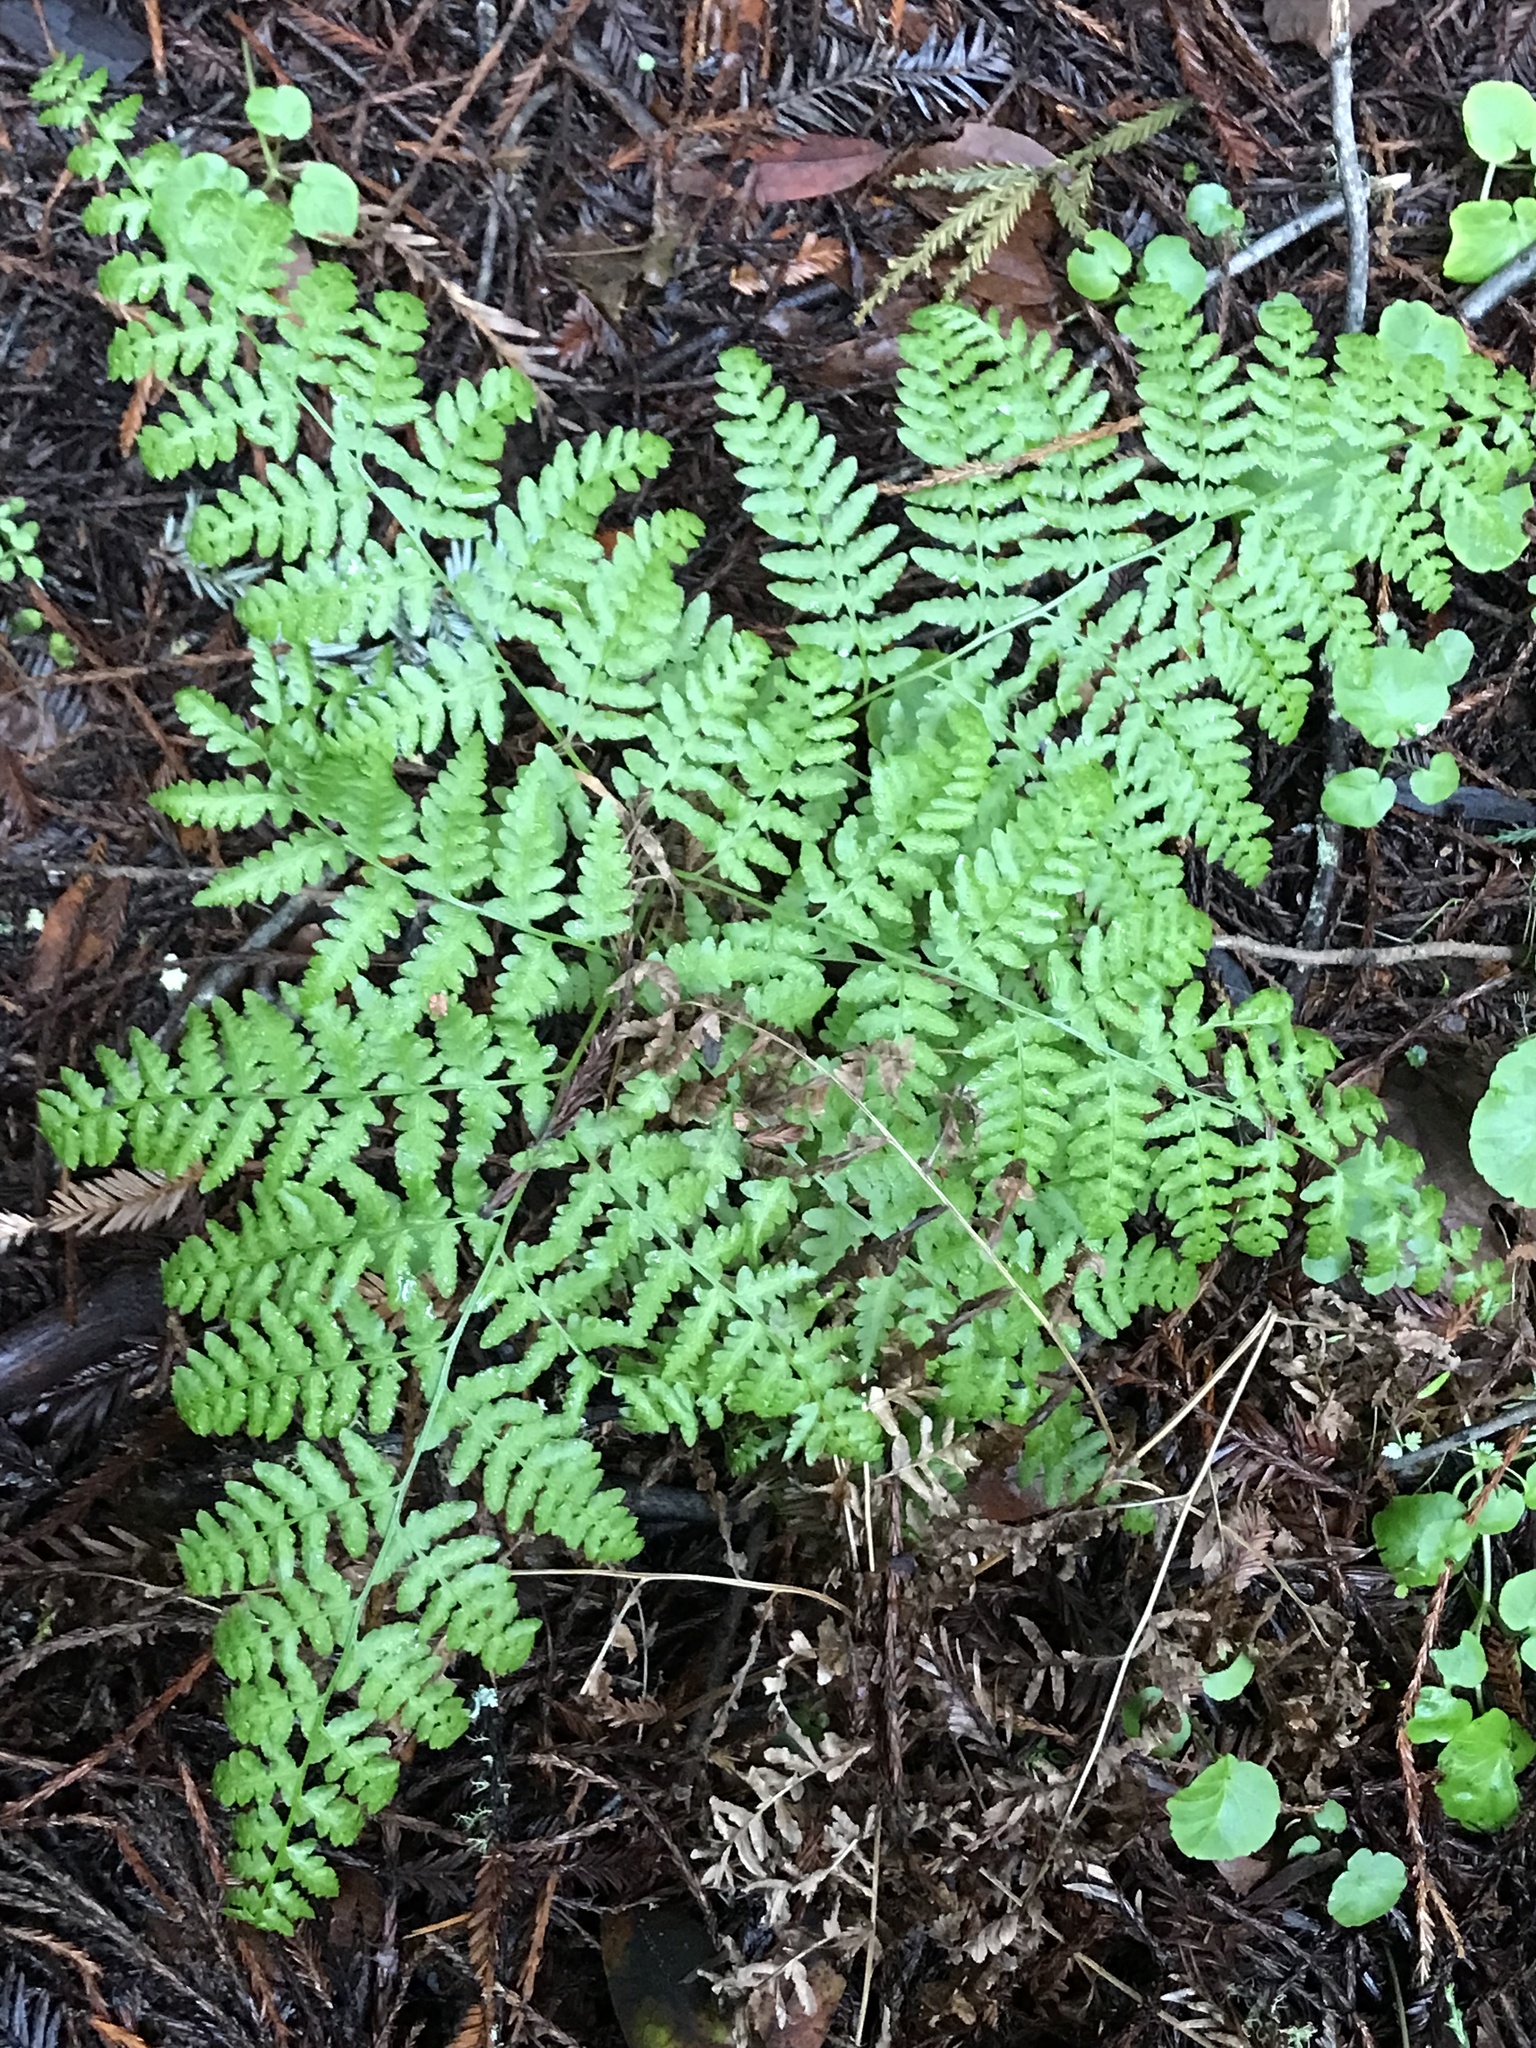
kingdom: Plantae
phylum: Tracheophyta
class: Polypodiopsida
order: Polypodiales
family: Dennstaedtiaceae
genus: Pteridium
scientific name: Pteridium aquilinum
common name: Bracken
